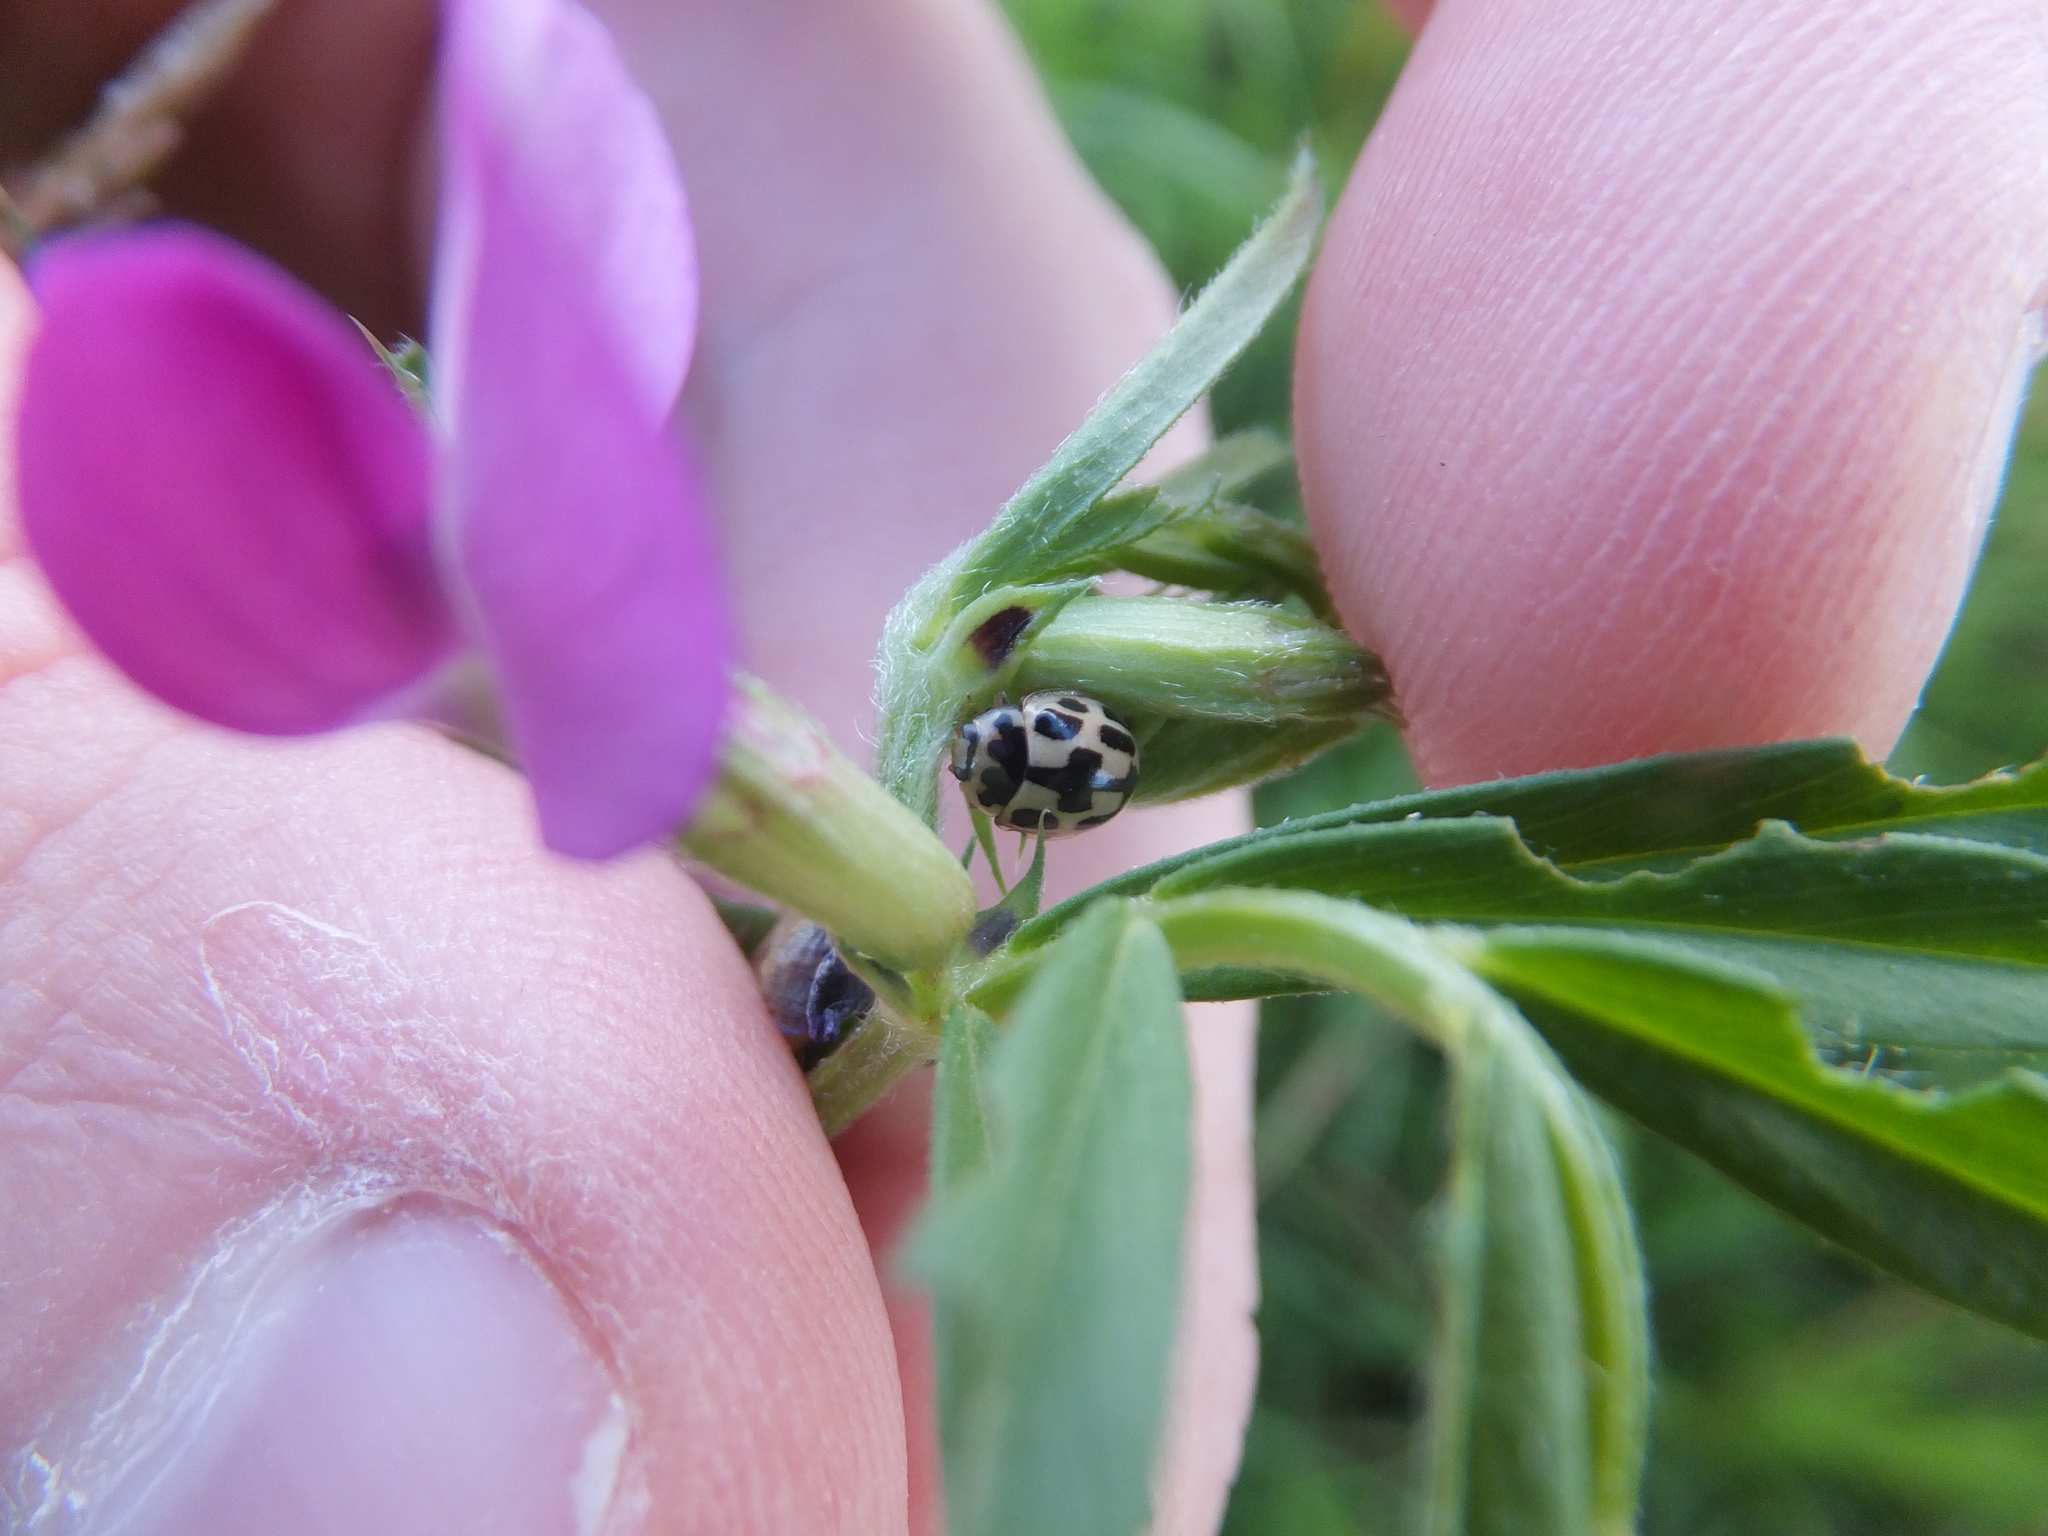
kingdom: Animalia
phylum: Arthropoda
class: Insecta
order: Coleoptera
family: Coccinellidae
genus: Propylaea
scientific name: Propylaea quatuordecimpunctata
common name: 14-spotted ladybird beetle
